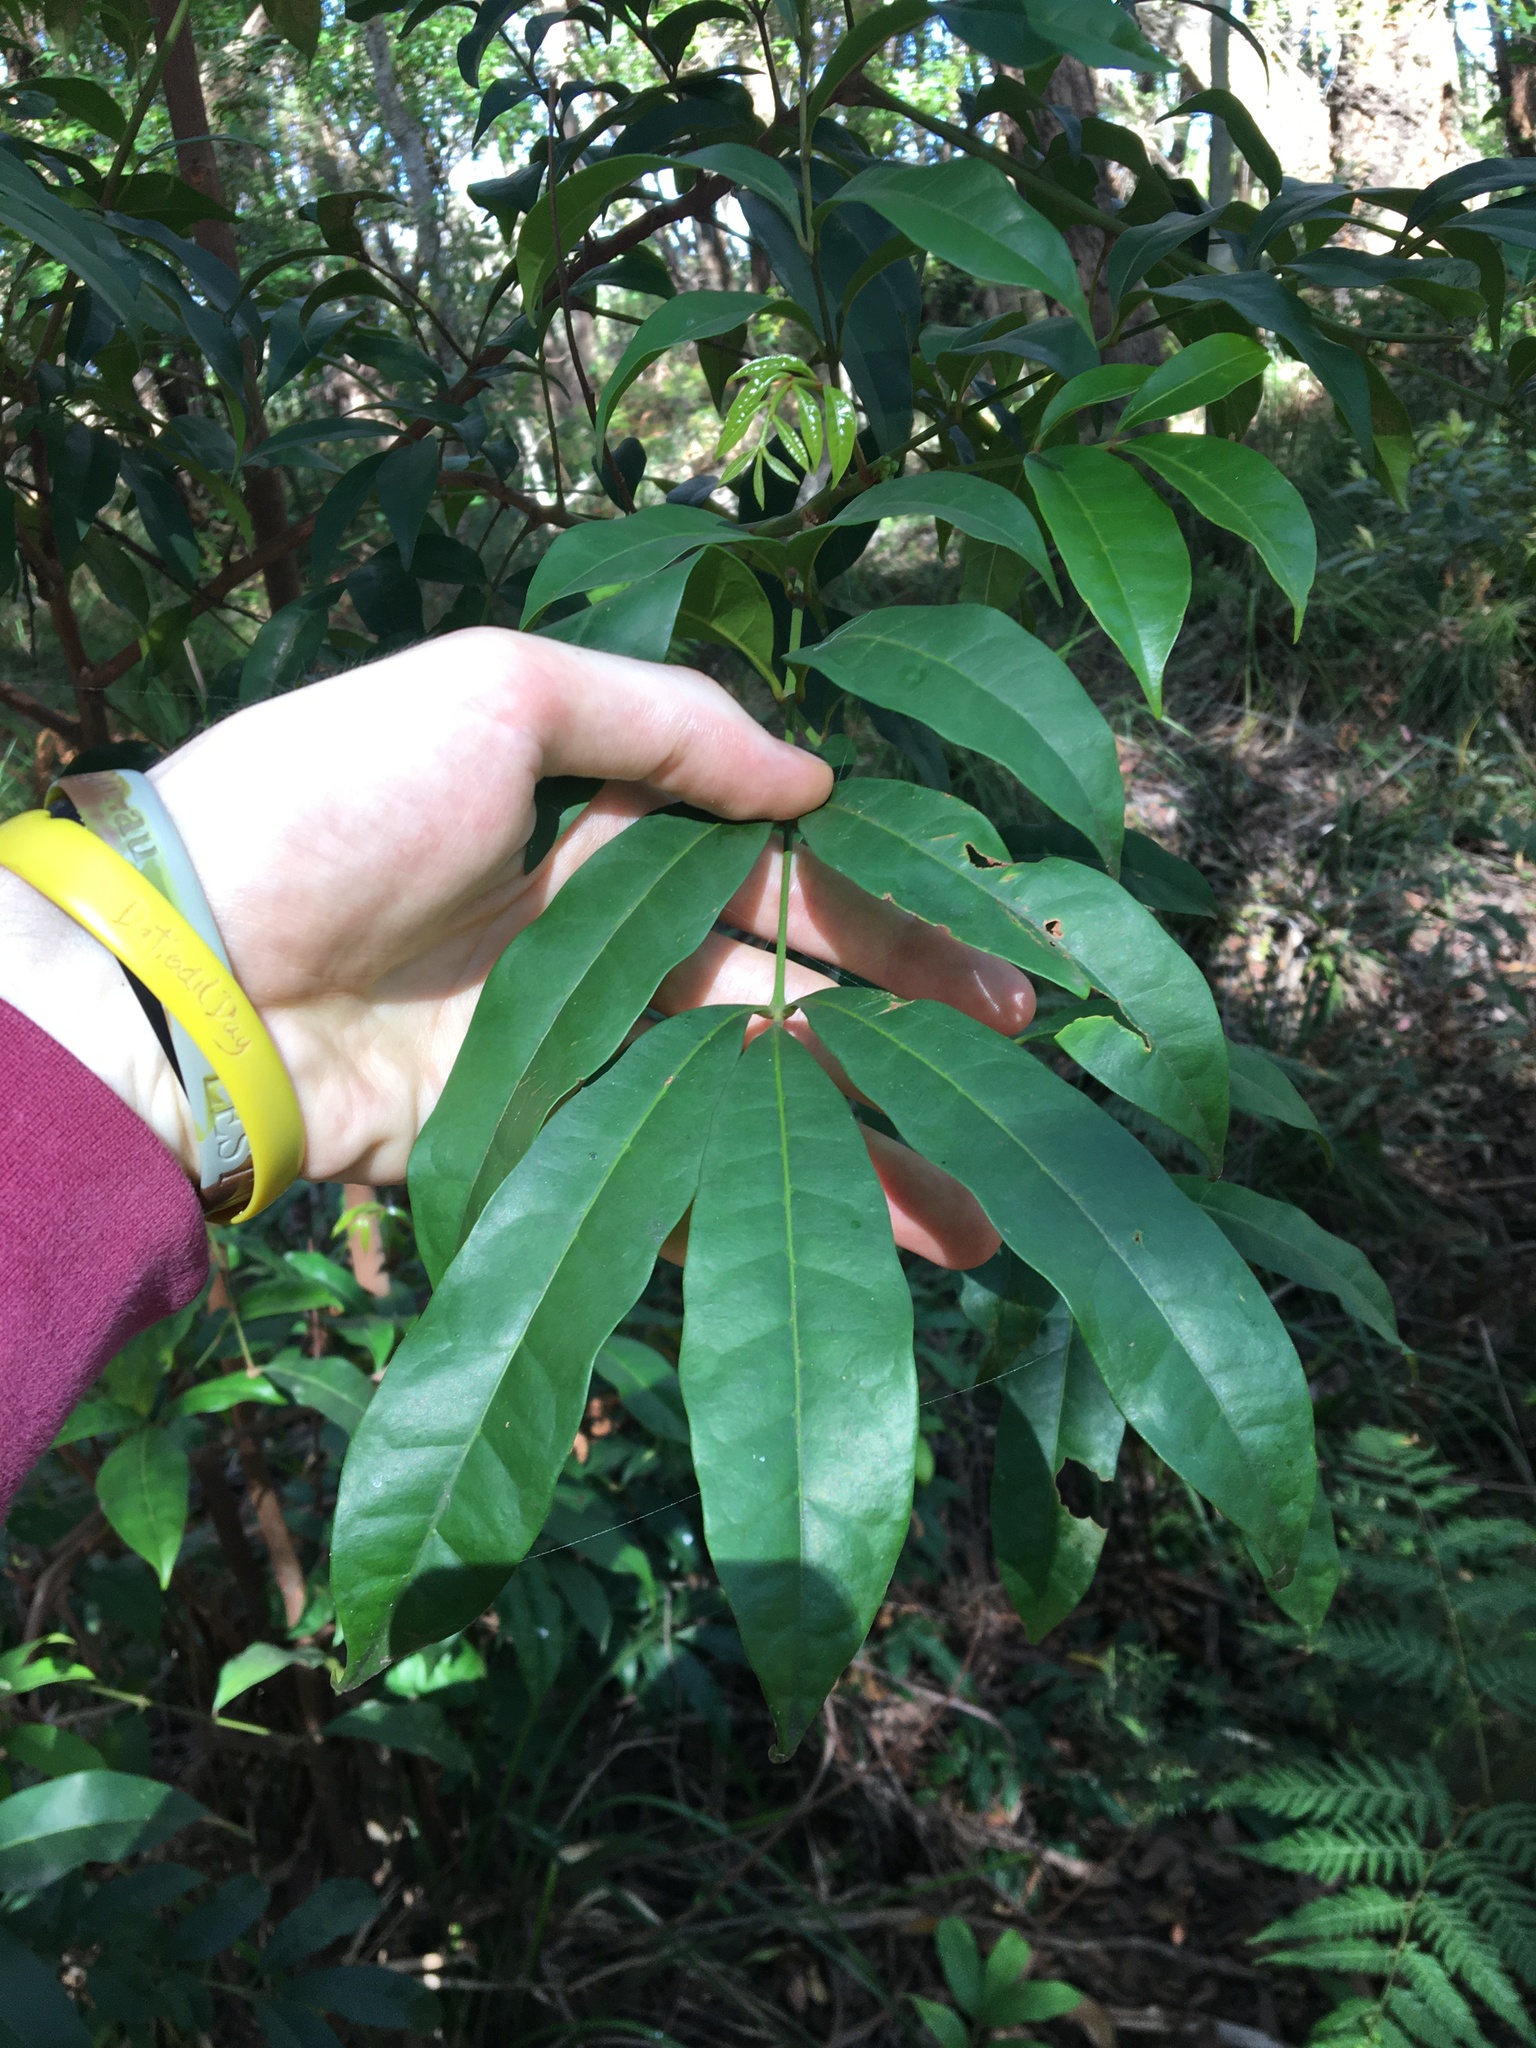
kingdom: Plantae
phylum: Tracheophyta
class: Magnoliopsida
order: Sapindales
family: Meliaceae
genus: Synoum
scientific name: Synoum glandulosum
